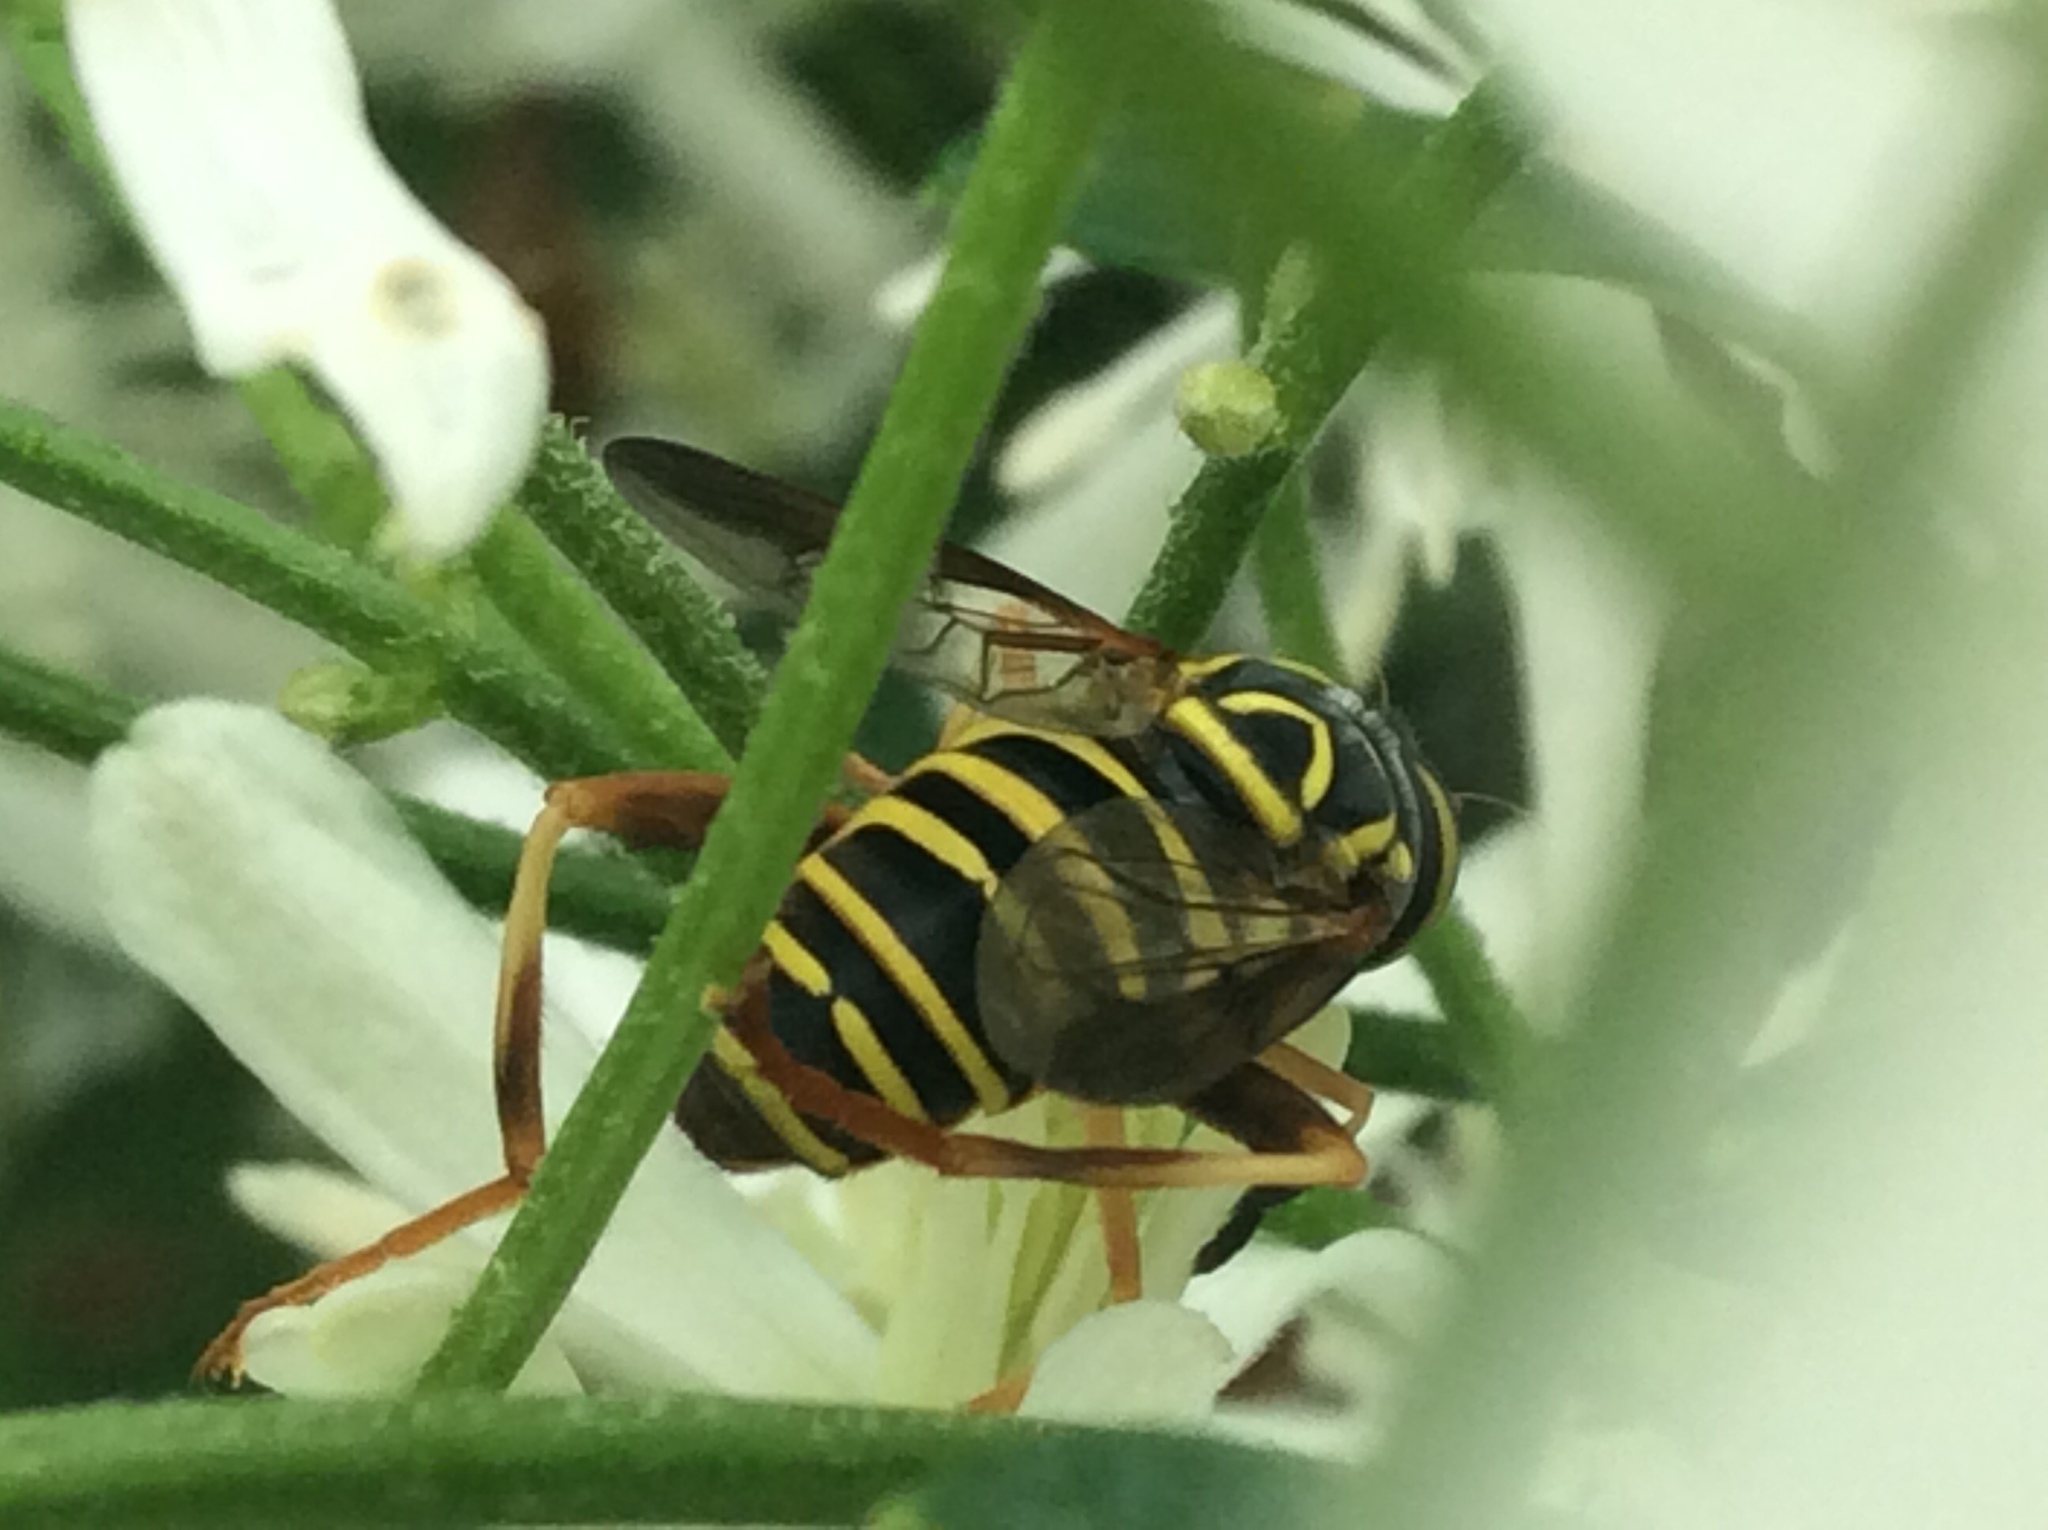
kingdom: Animalia
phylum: Arthropoda
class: Insecta
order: Diptera
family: Syrphidae
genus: Spilomyia
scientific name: Spilomyia longicornis
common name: Eastern hornet fly
